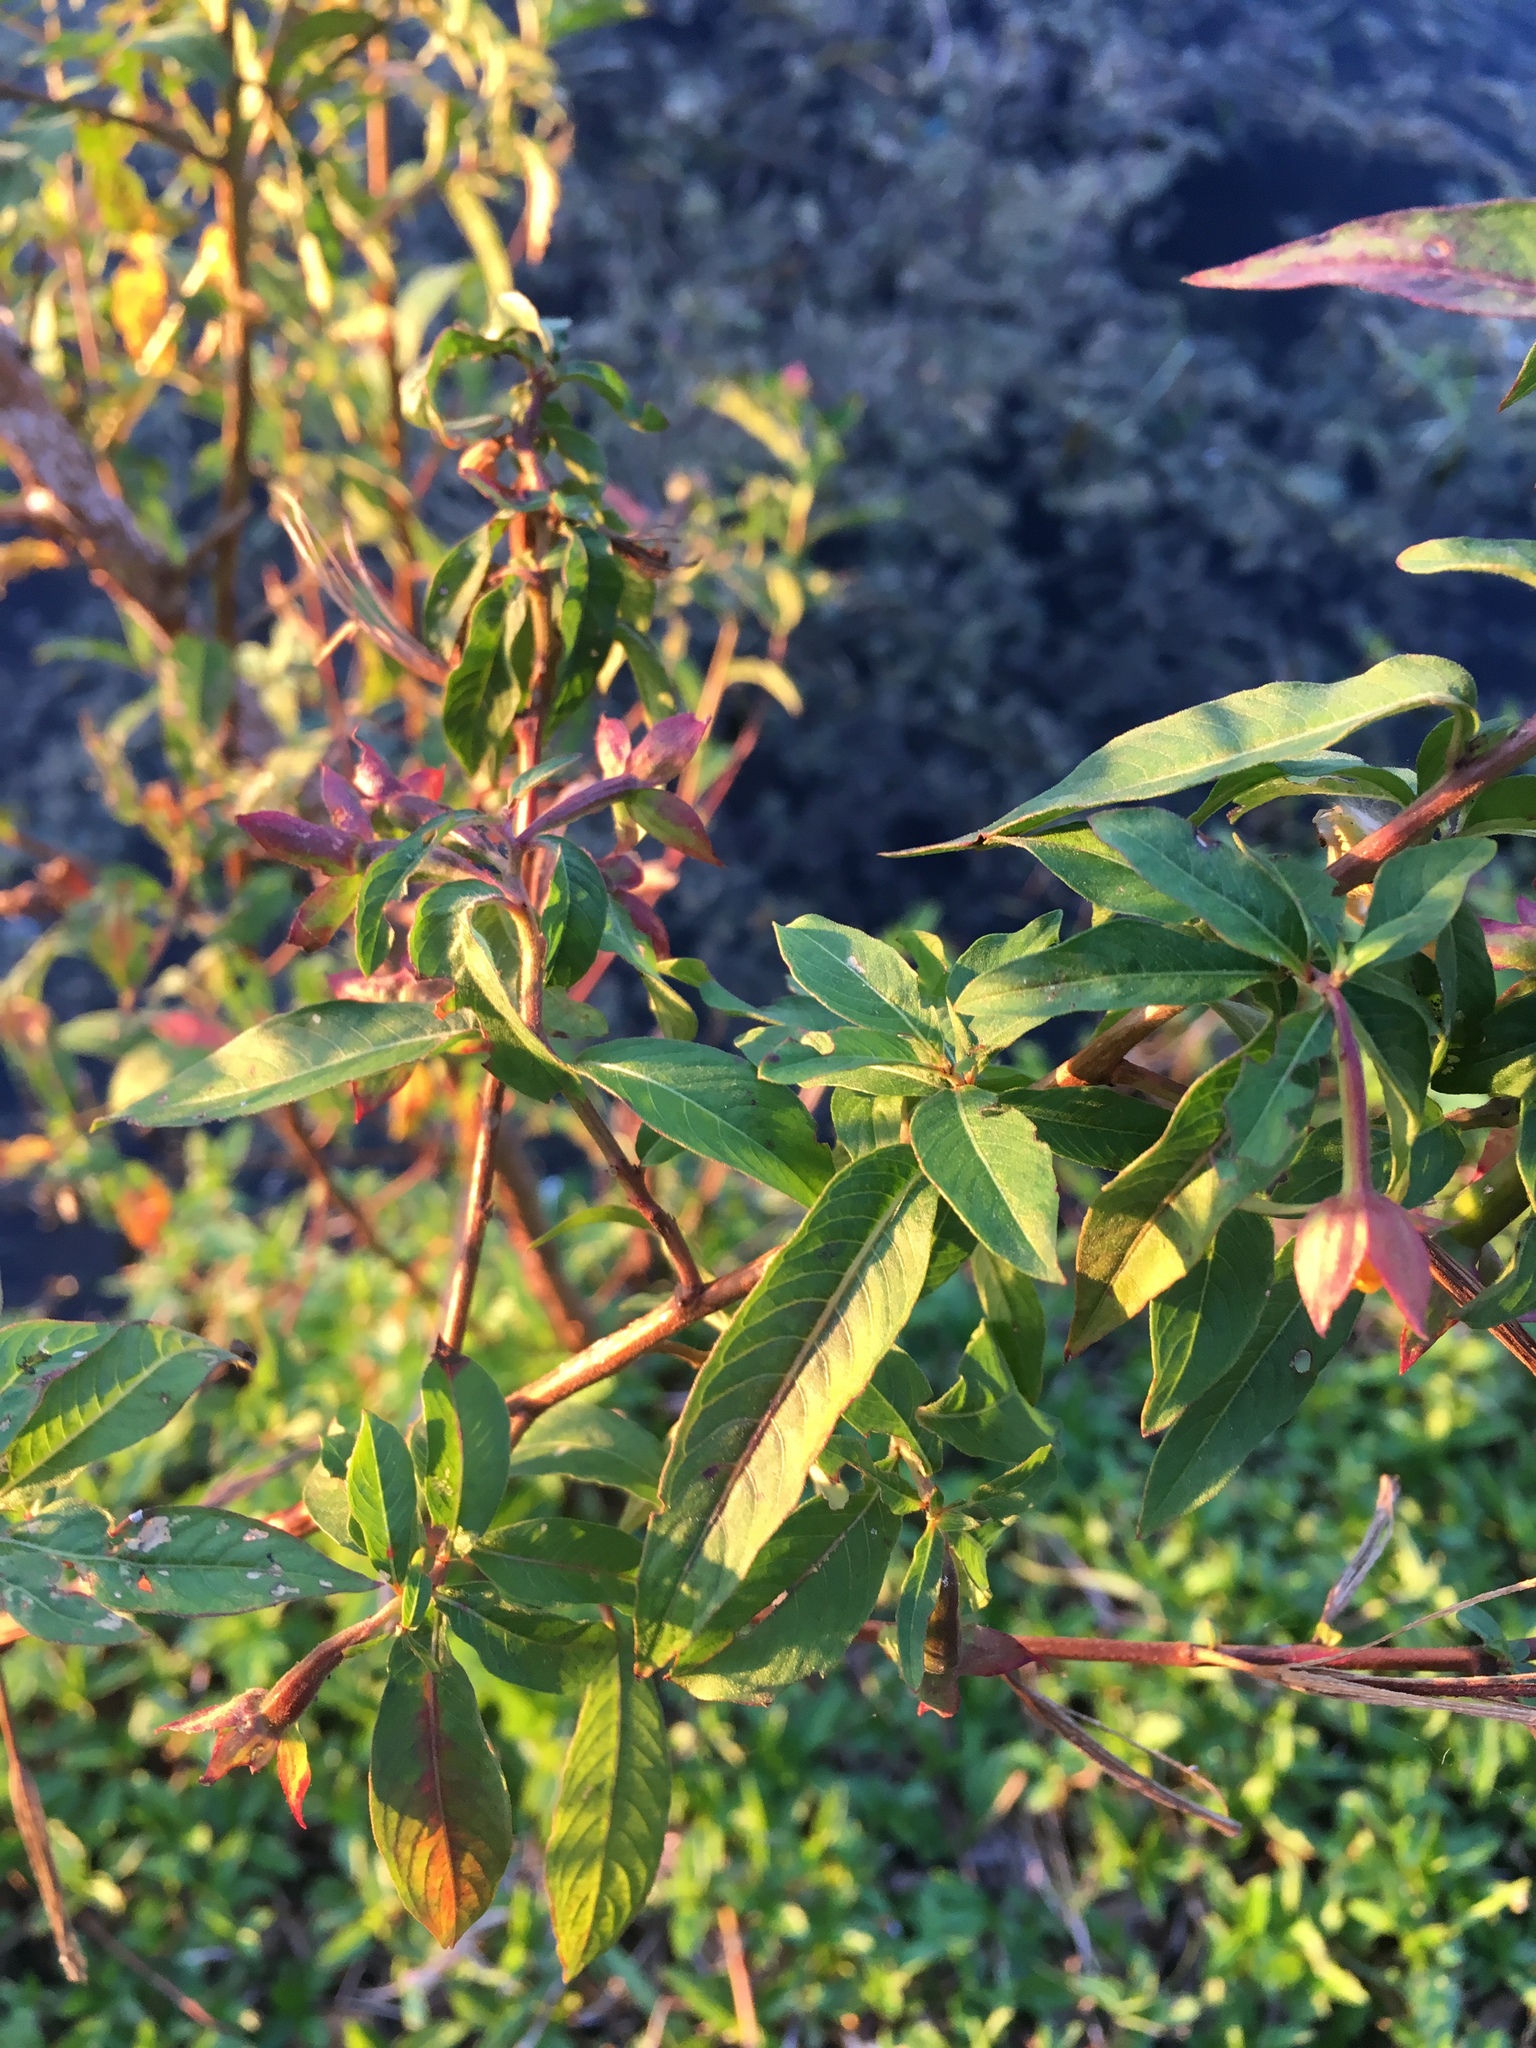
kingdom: Plantae
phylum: Tracheophyta
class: Magnoliopsida
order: Myrtales
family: Onagraceae
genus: Ludwigia
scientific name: Ludwigia octovalvis
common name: Water-primrose
